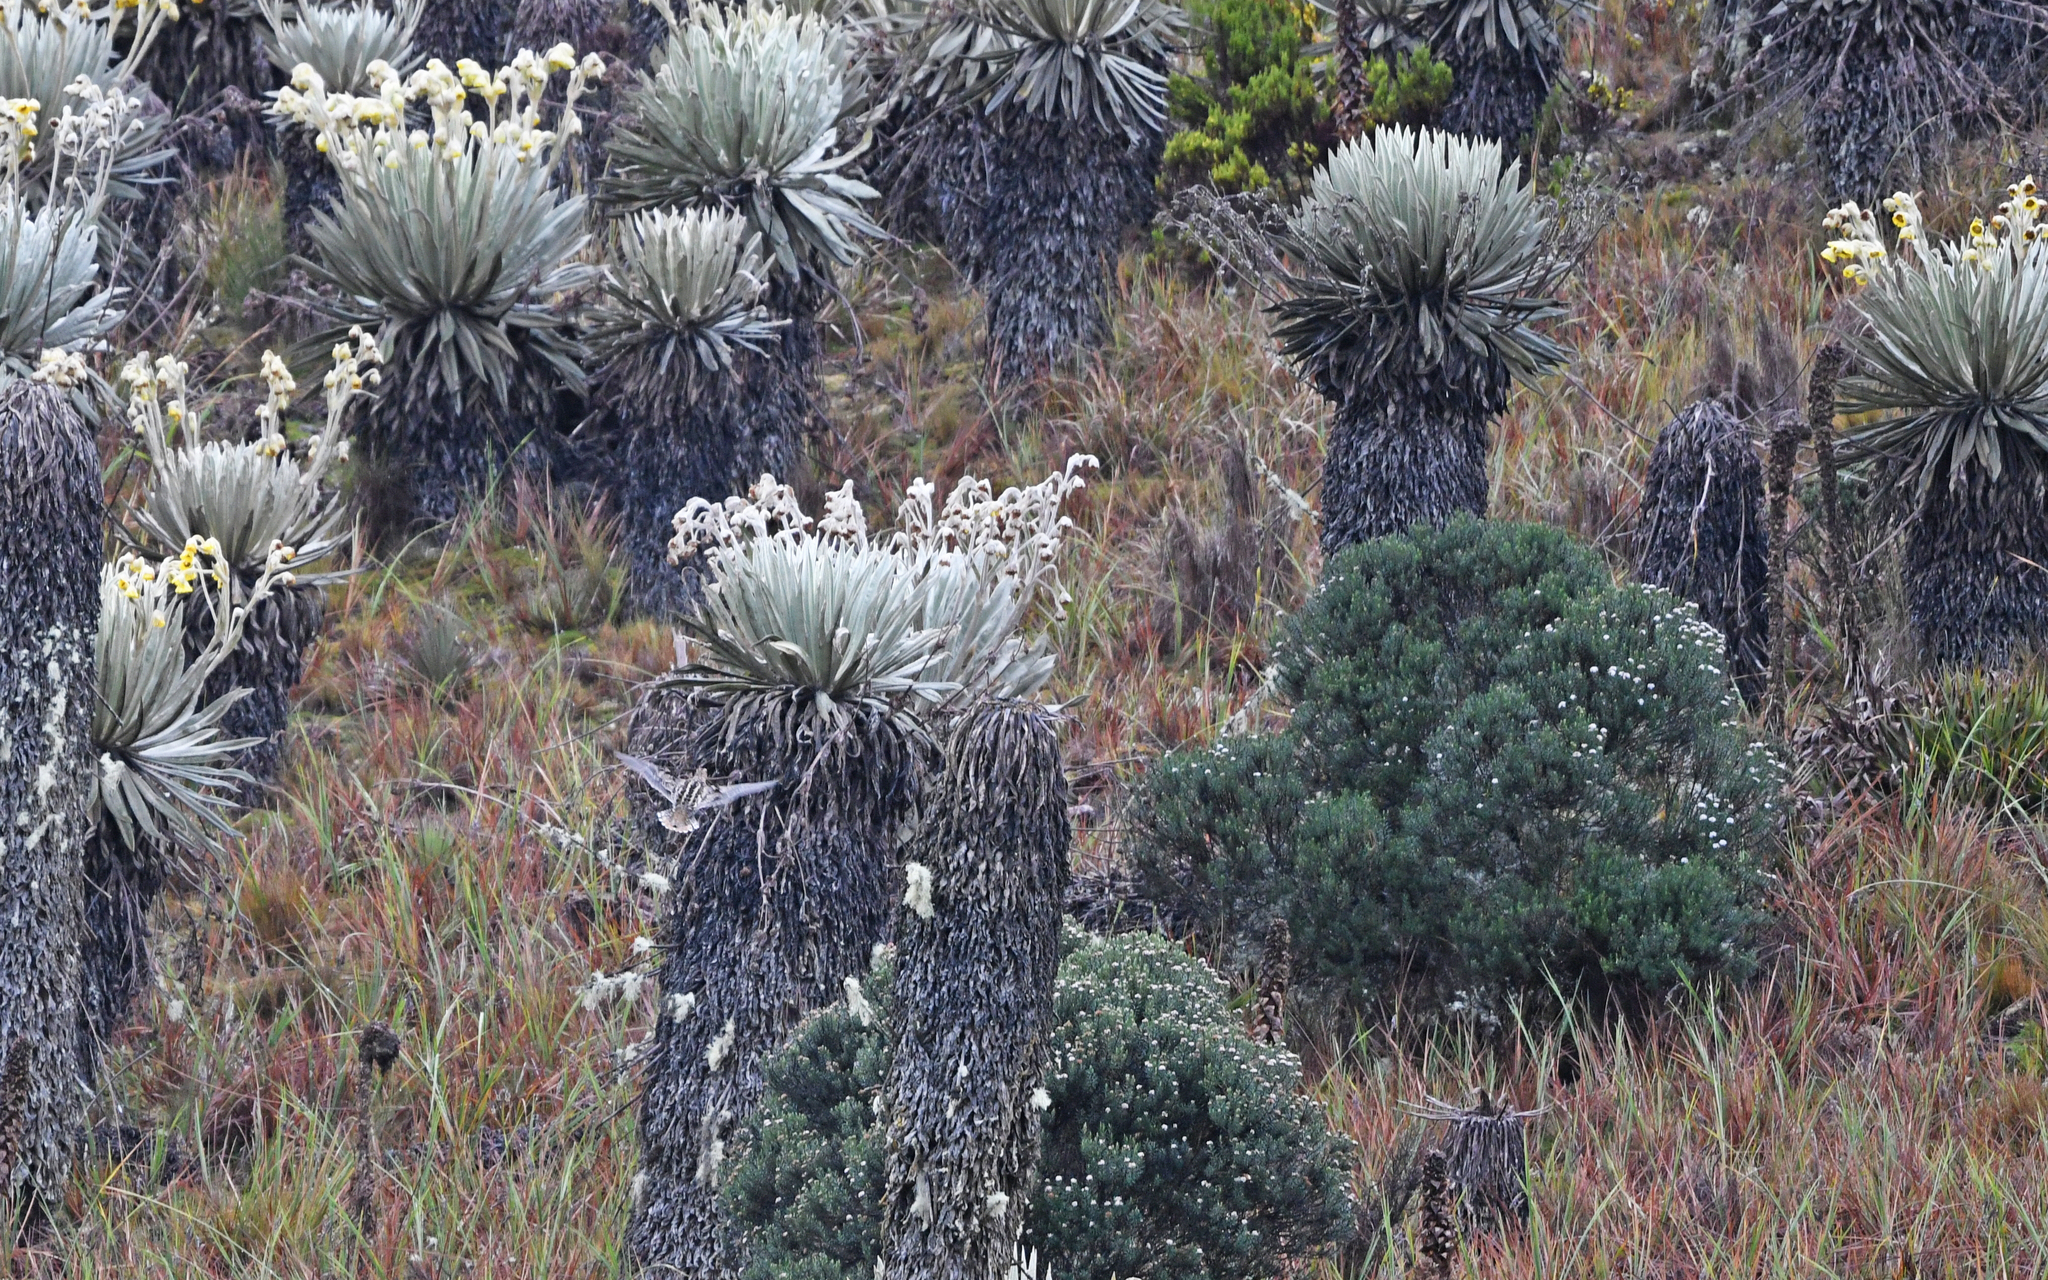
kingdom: Animalia
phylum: Chordata
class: Aves
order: Charadriiformes
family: Scolopacidae
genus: Gallinago
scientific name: Gallinago nobilis
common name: Noble snipe
